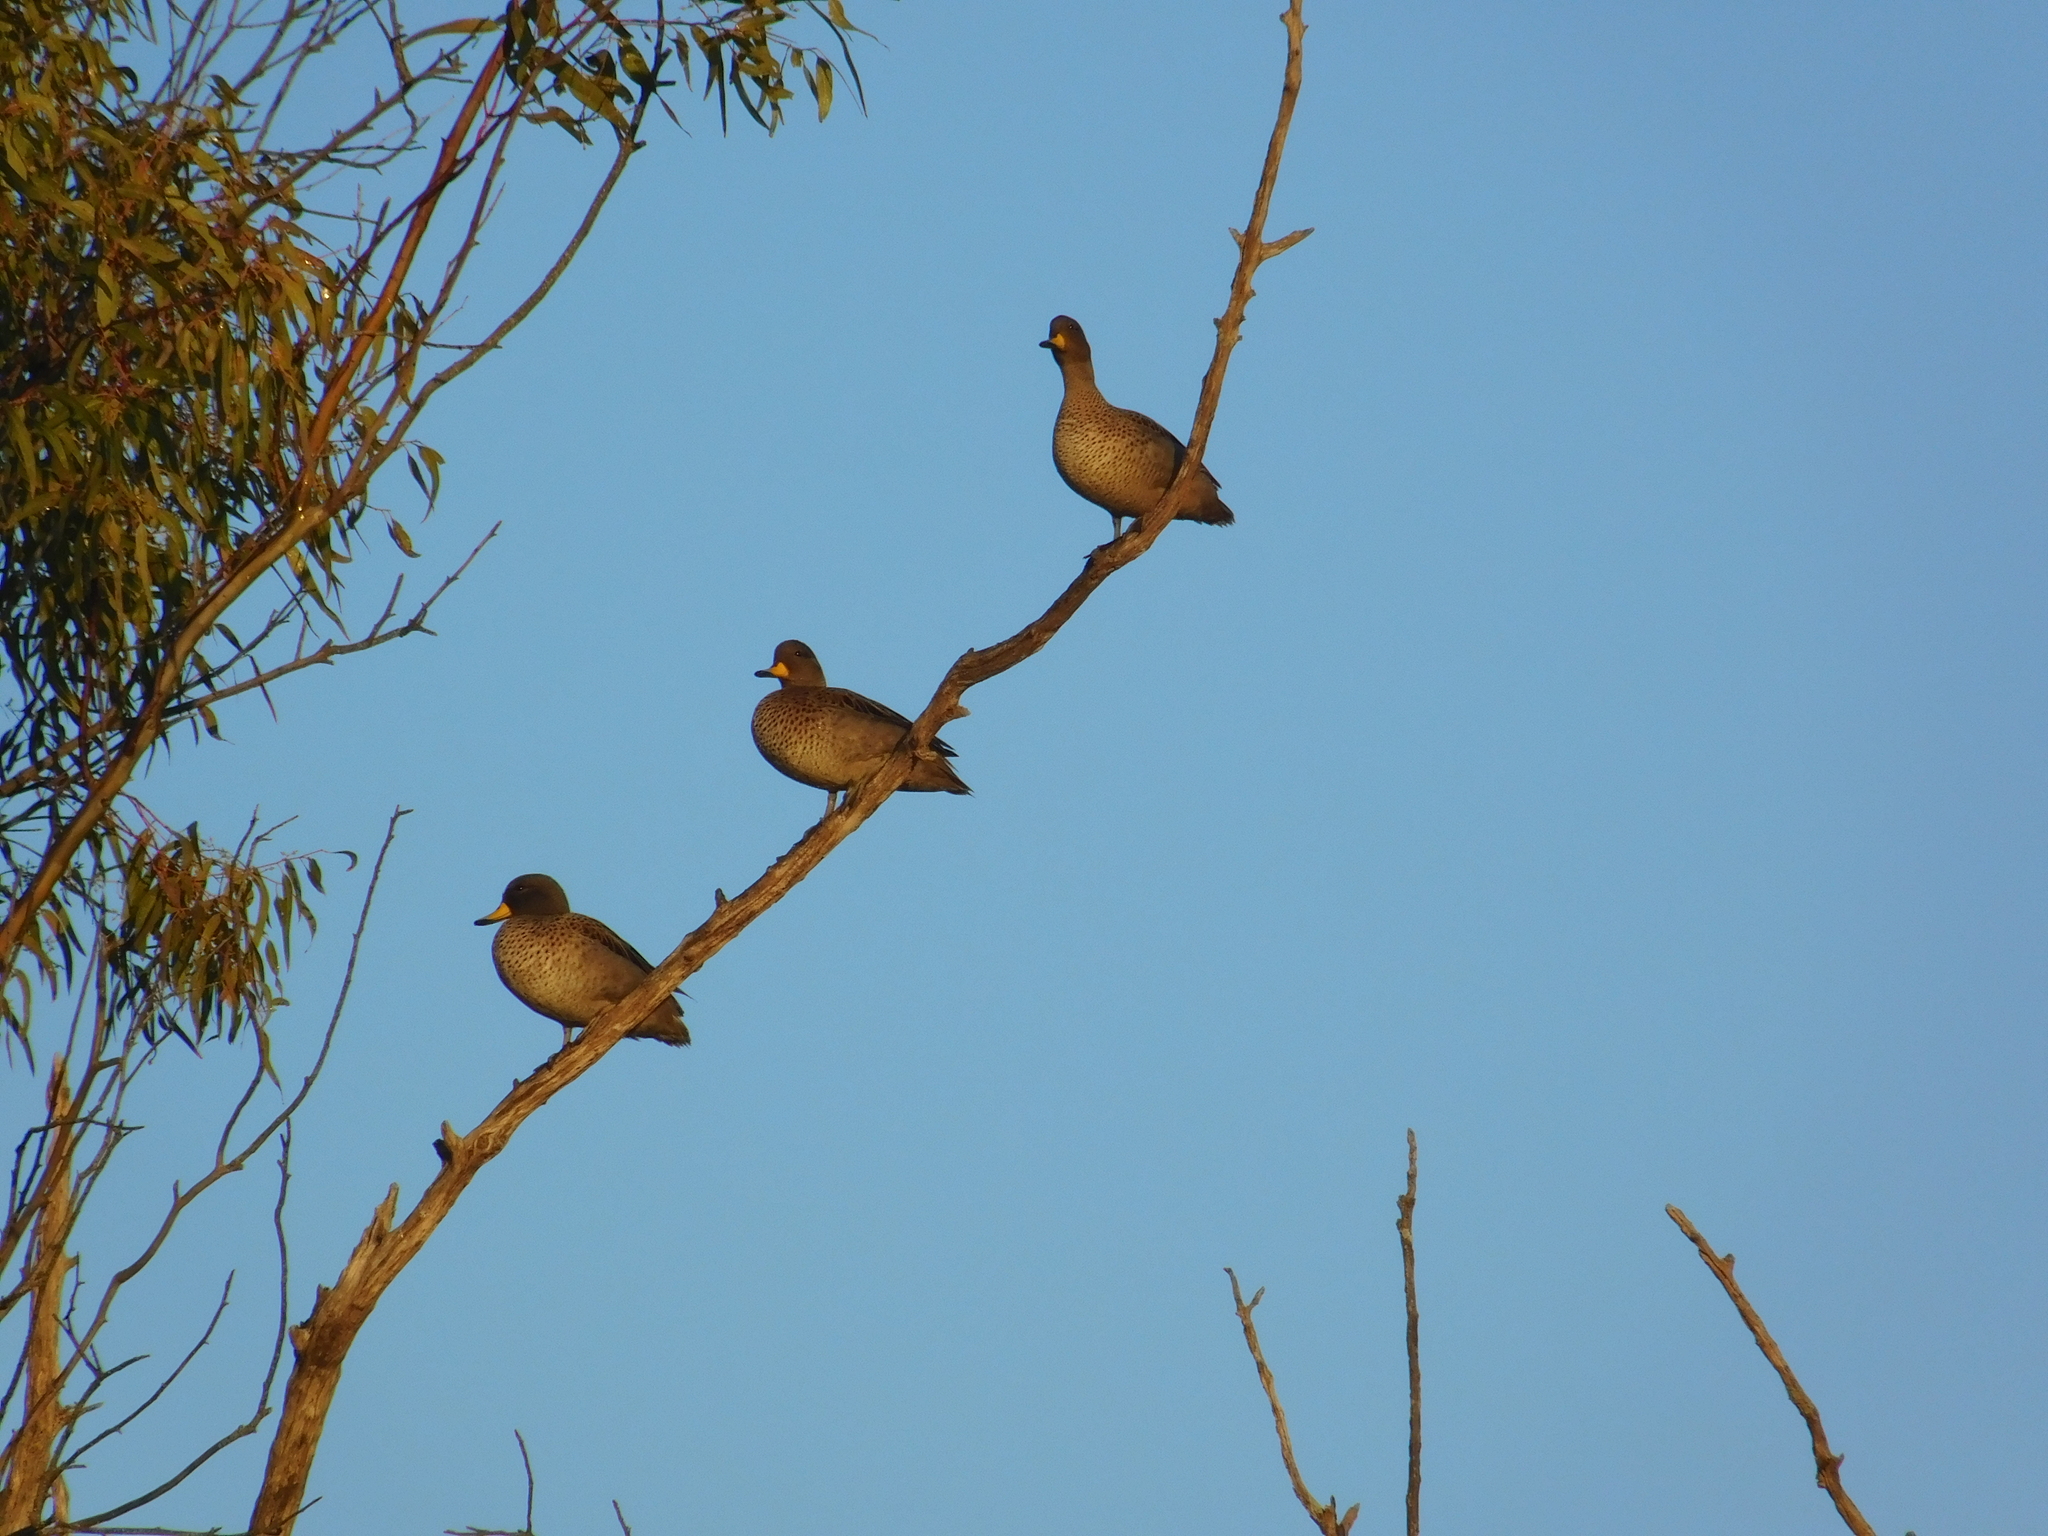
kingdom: Animalia
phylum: Chordata
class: Aves
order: Anseriformes
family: Anatidae
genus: Anas
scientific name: Anas flavirostris
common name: Yellow-billed teal
